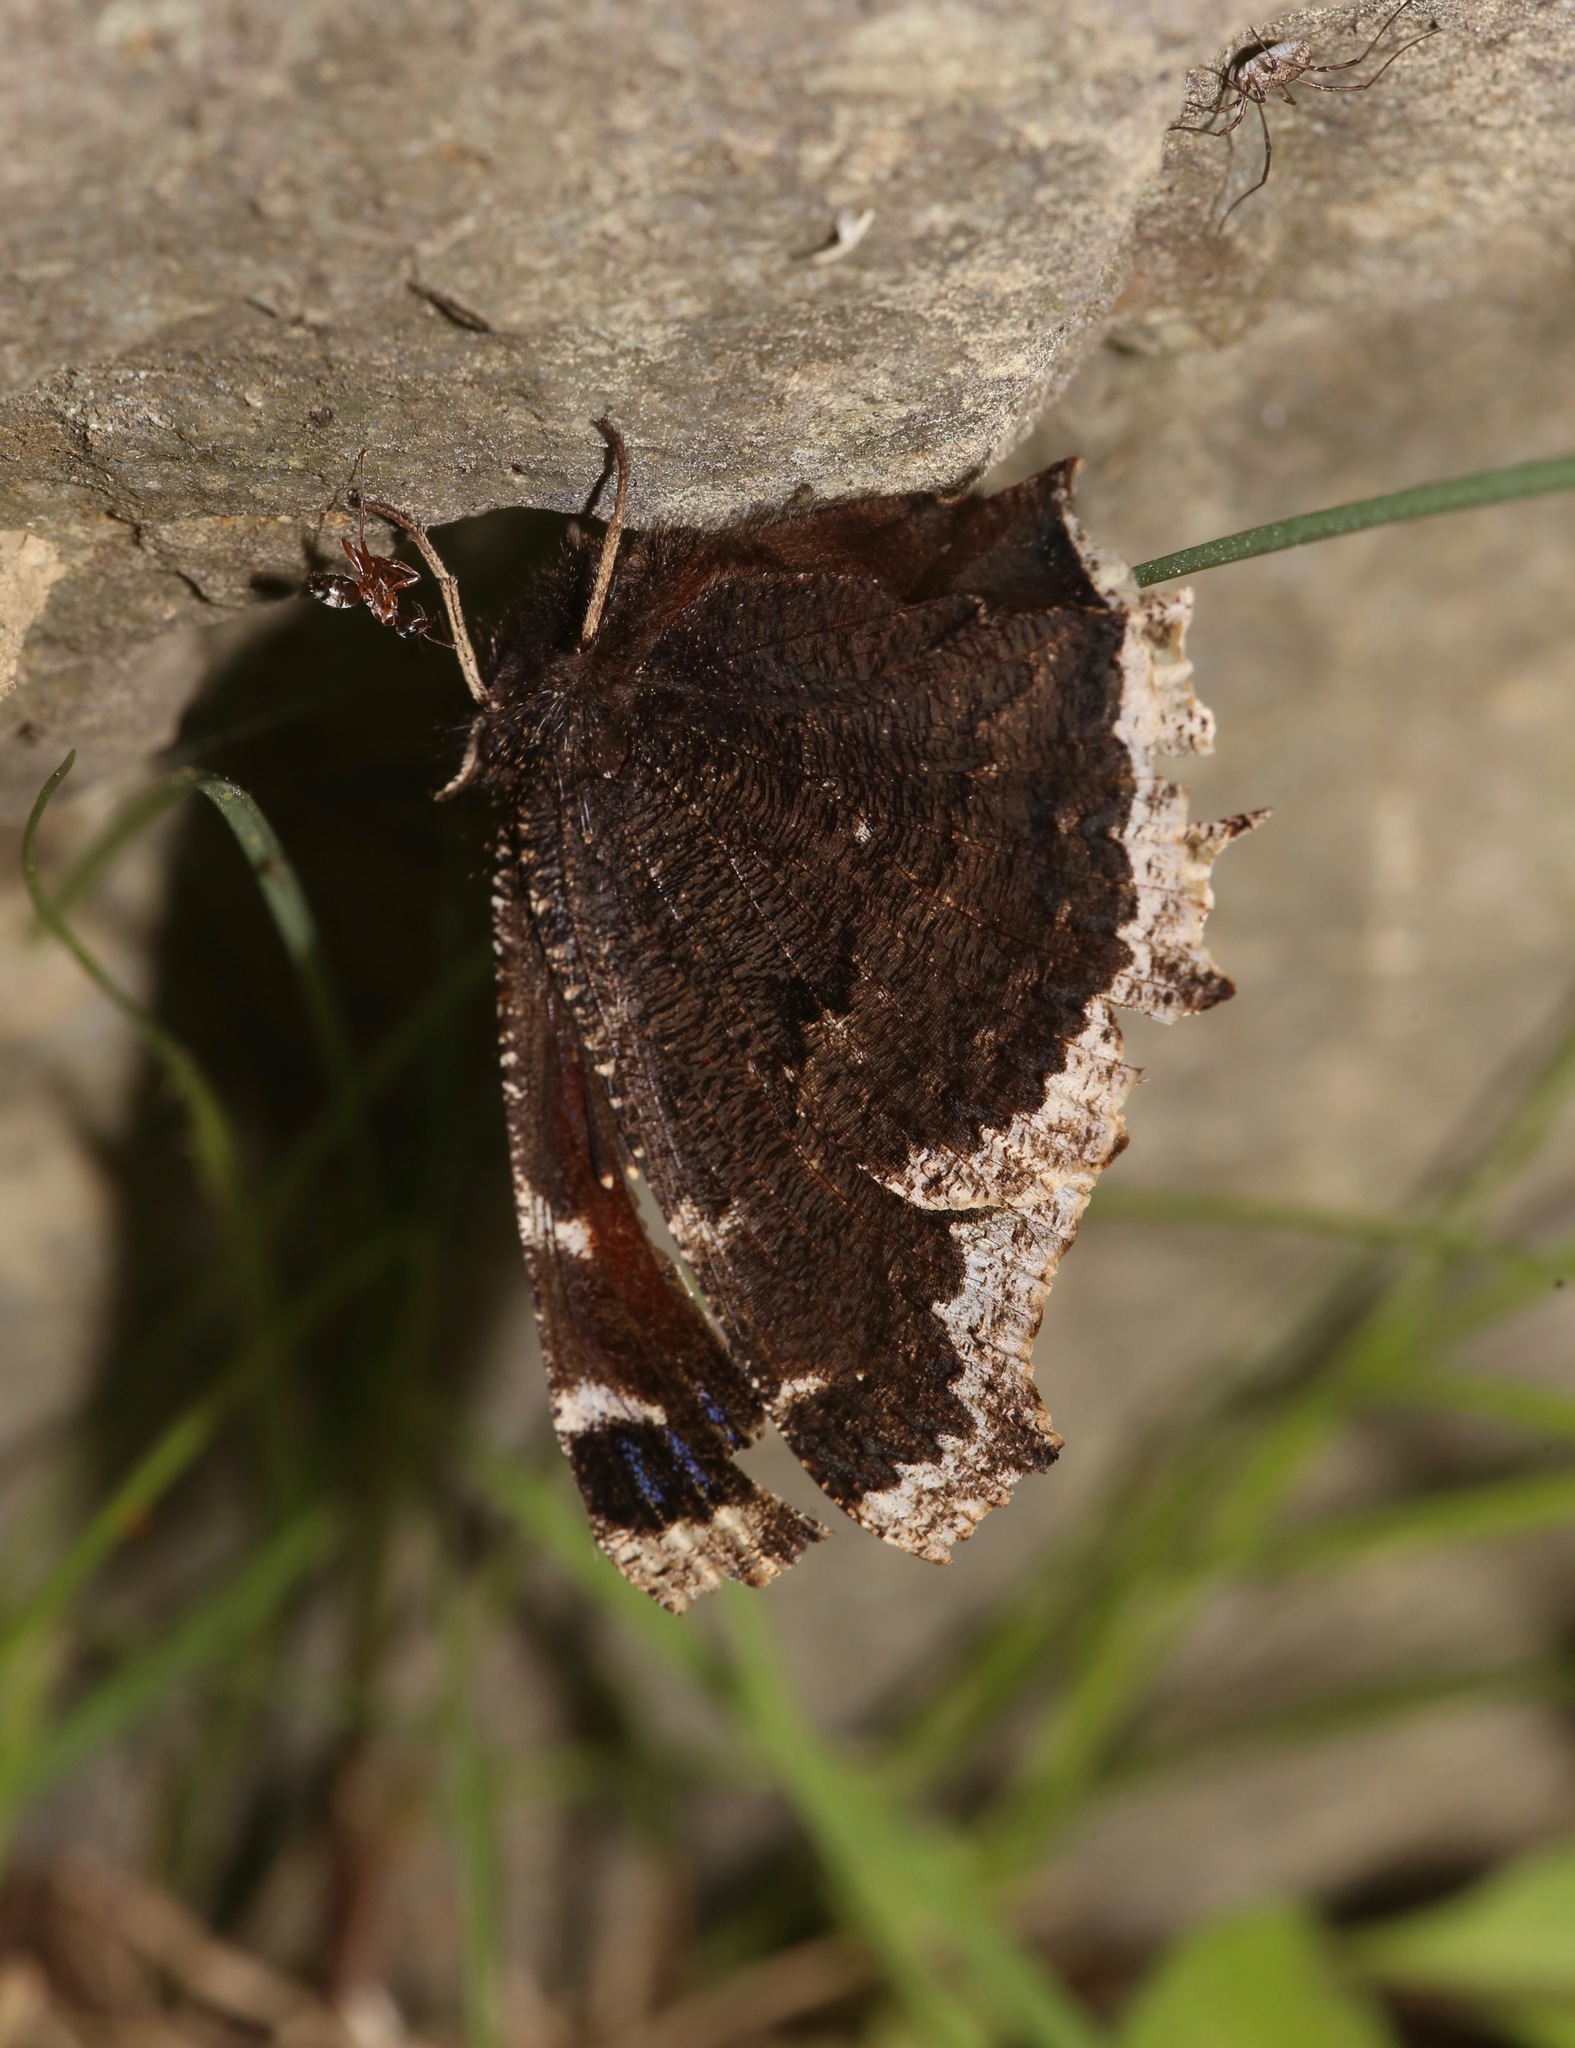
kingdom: Animalia
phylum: Arthropoda
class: Insecta
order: Lepidoptera
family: Nymphalidae
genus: Nymphalis
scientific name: Nymphalis antiopa
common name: Camberwell beauty
